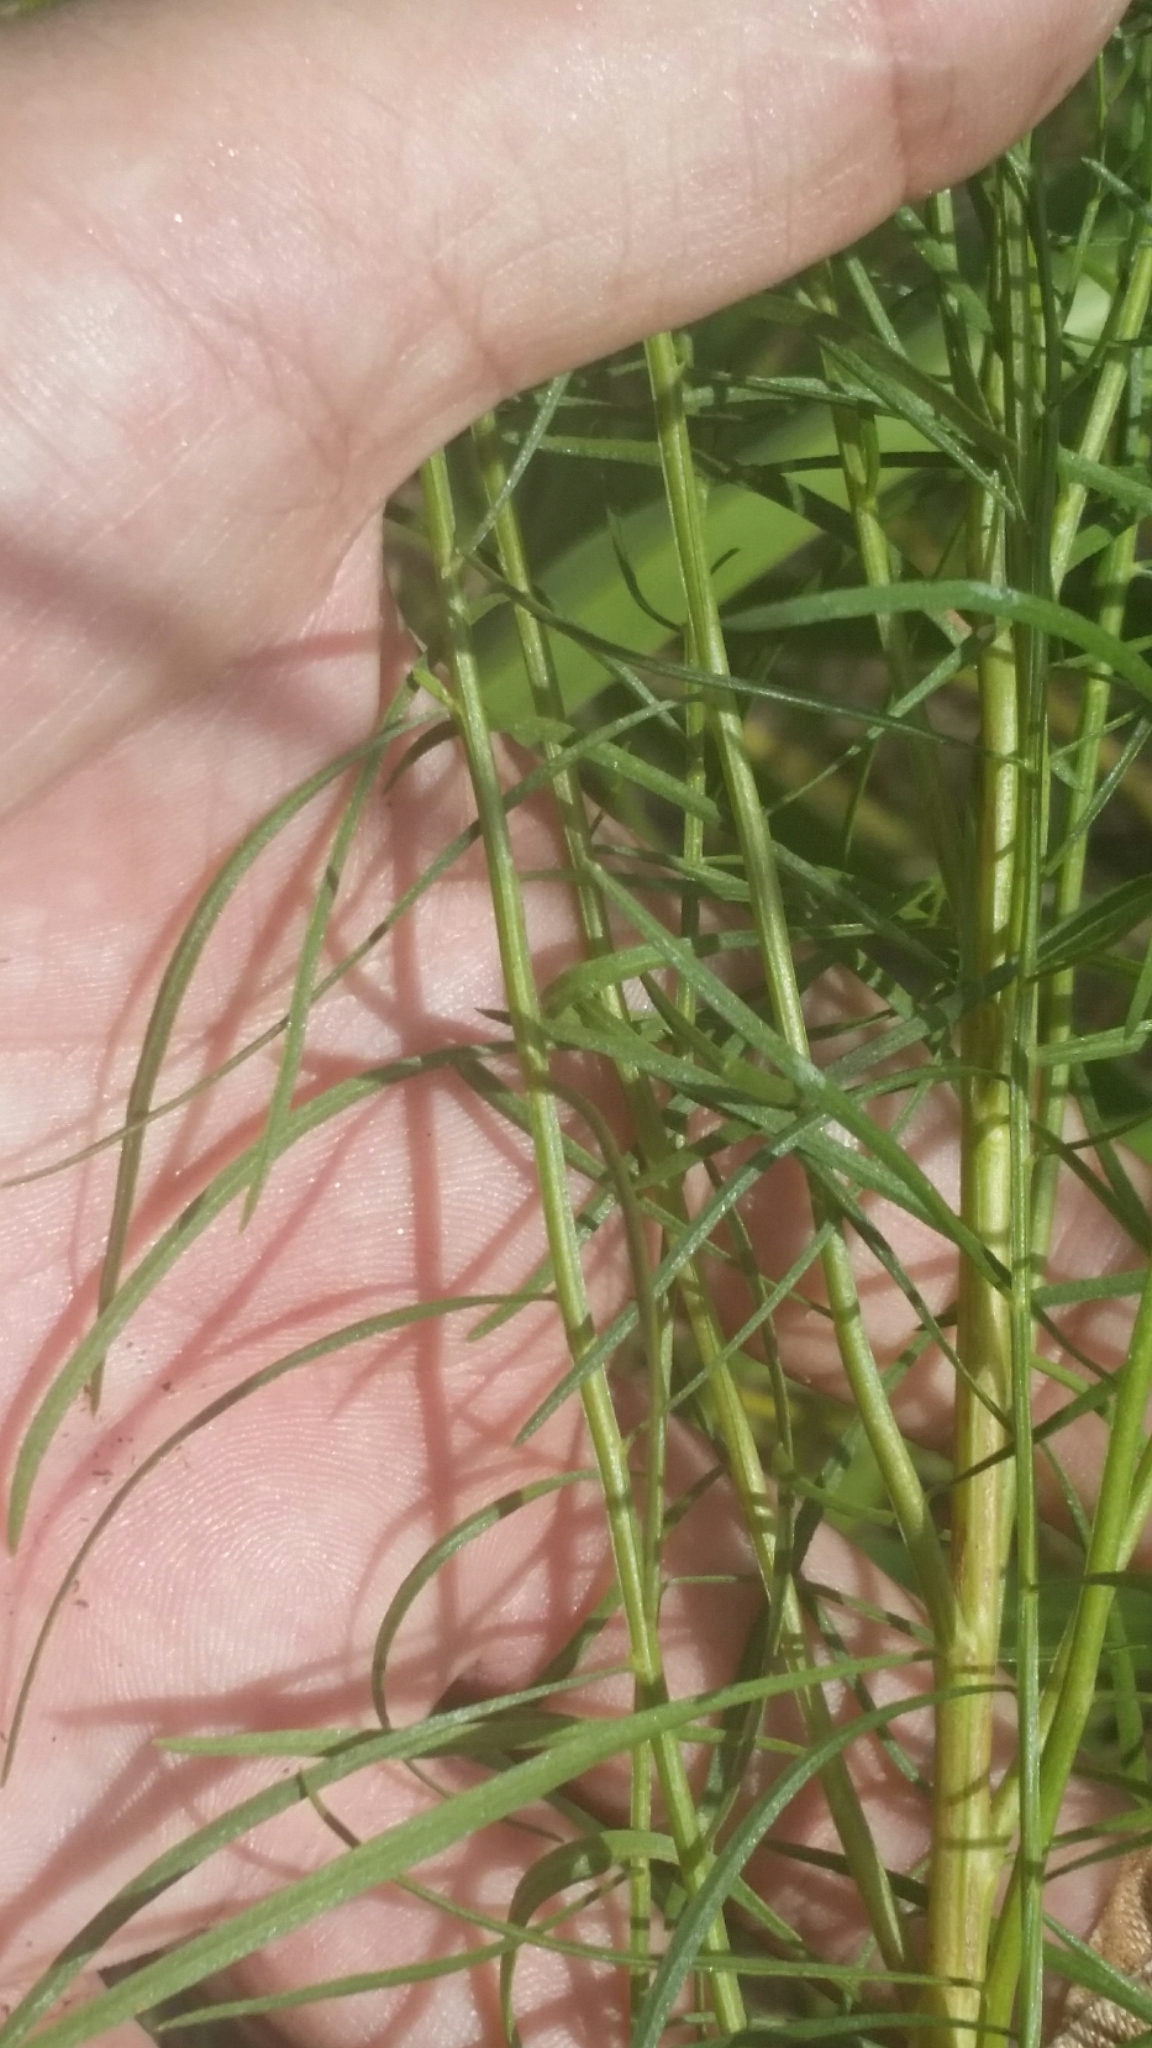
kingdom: Plantae
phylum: Tracheophyta
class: Magnoliopsida
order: Asterales
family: Asteraceae
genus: Euthamia
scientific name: Euthamia caroliniana
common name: Coastal plain goldentop
